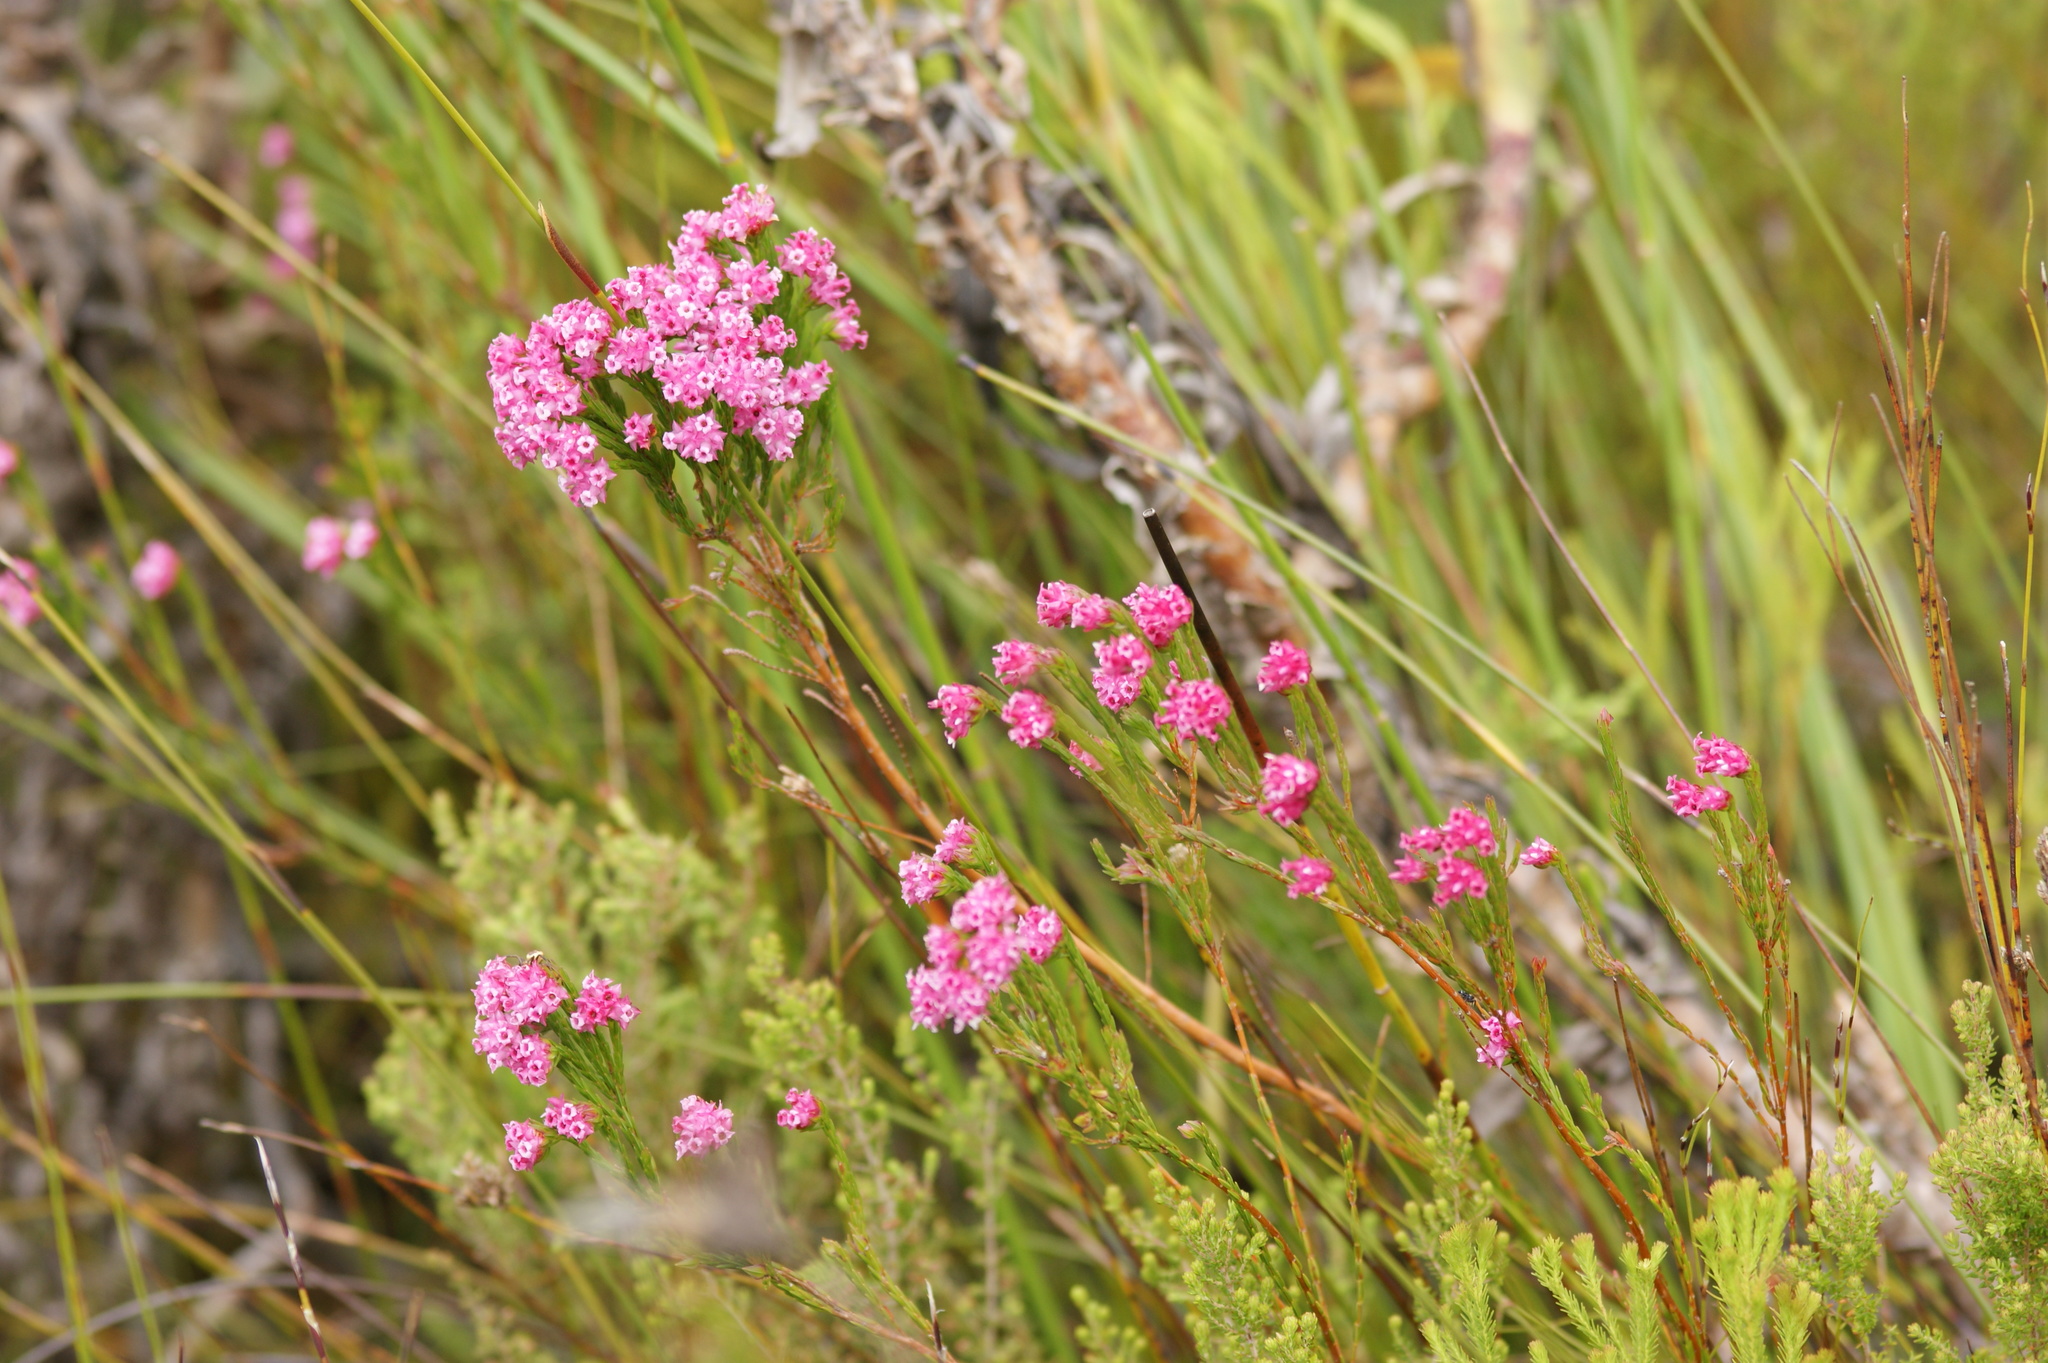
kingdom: Plantae
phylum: Tracheophyta
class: Magnoliopsida
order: Ericales
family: Ericaceae
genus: Erica
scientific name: Erica bracteolaris
